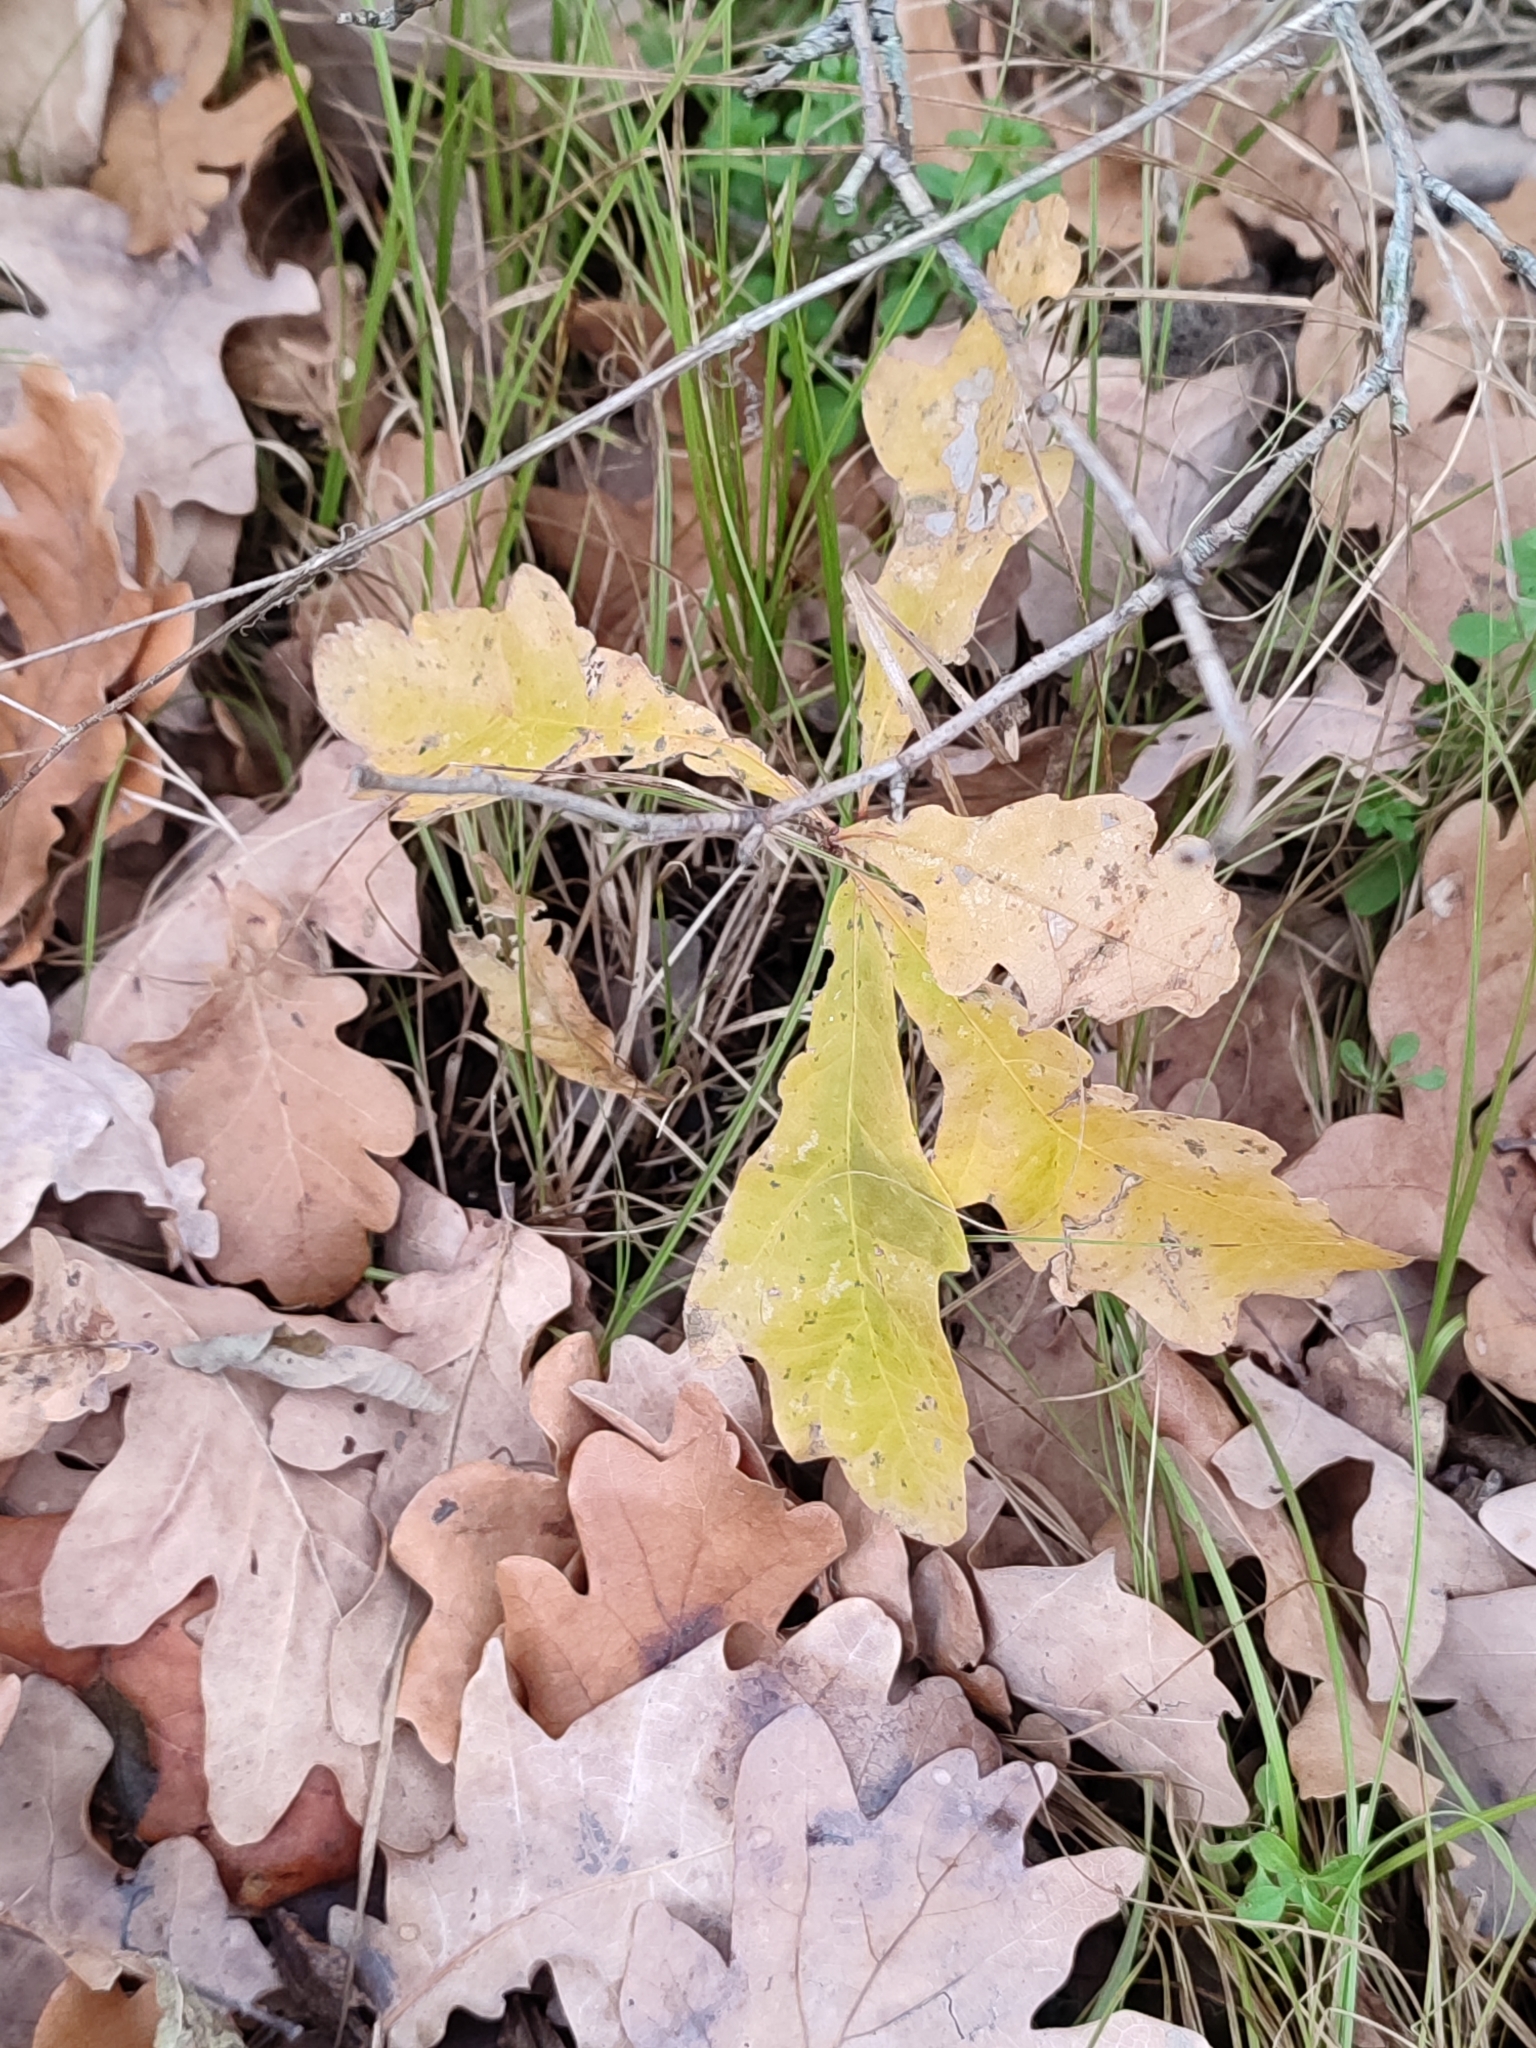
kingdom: Plantae
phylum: Tracheophyta
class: Magnoliopsida
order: Fagales
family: Fagaceae
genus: Quercus
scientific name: Quercus robur
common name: Pedunculate oak
